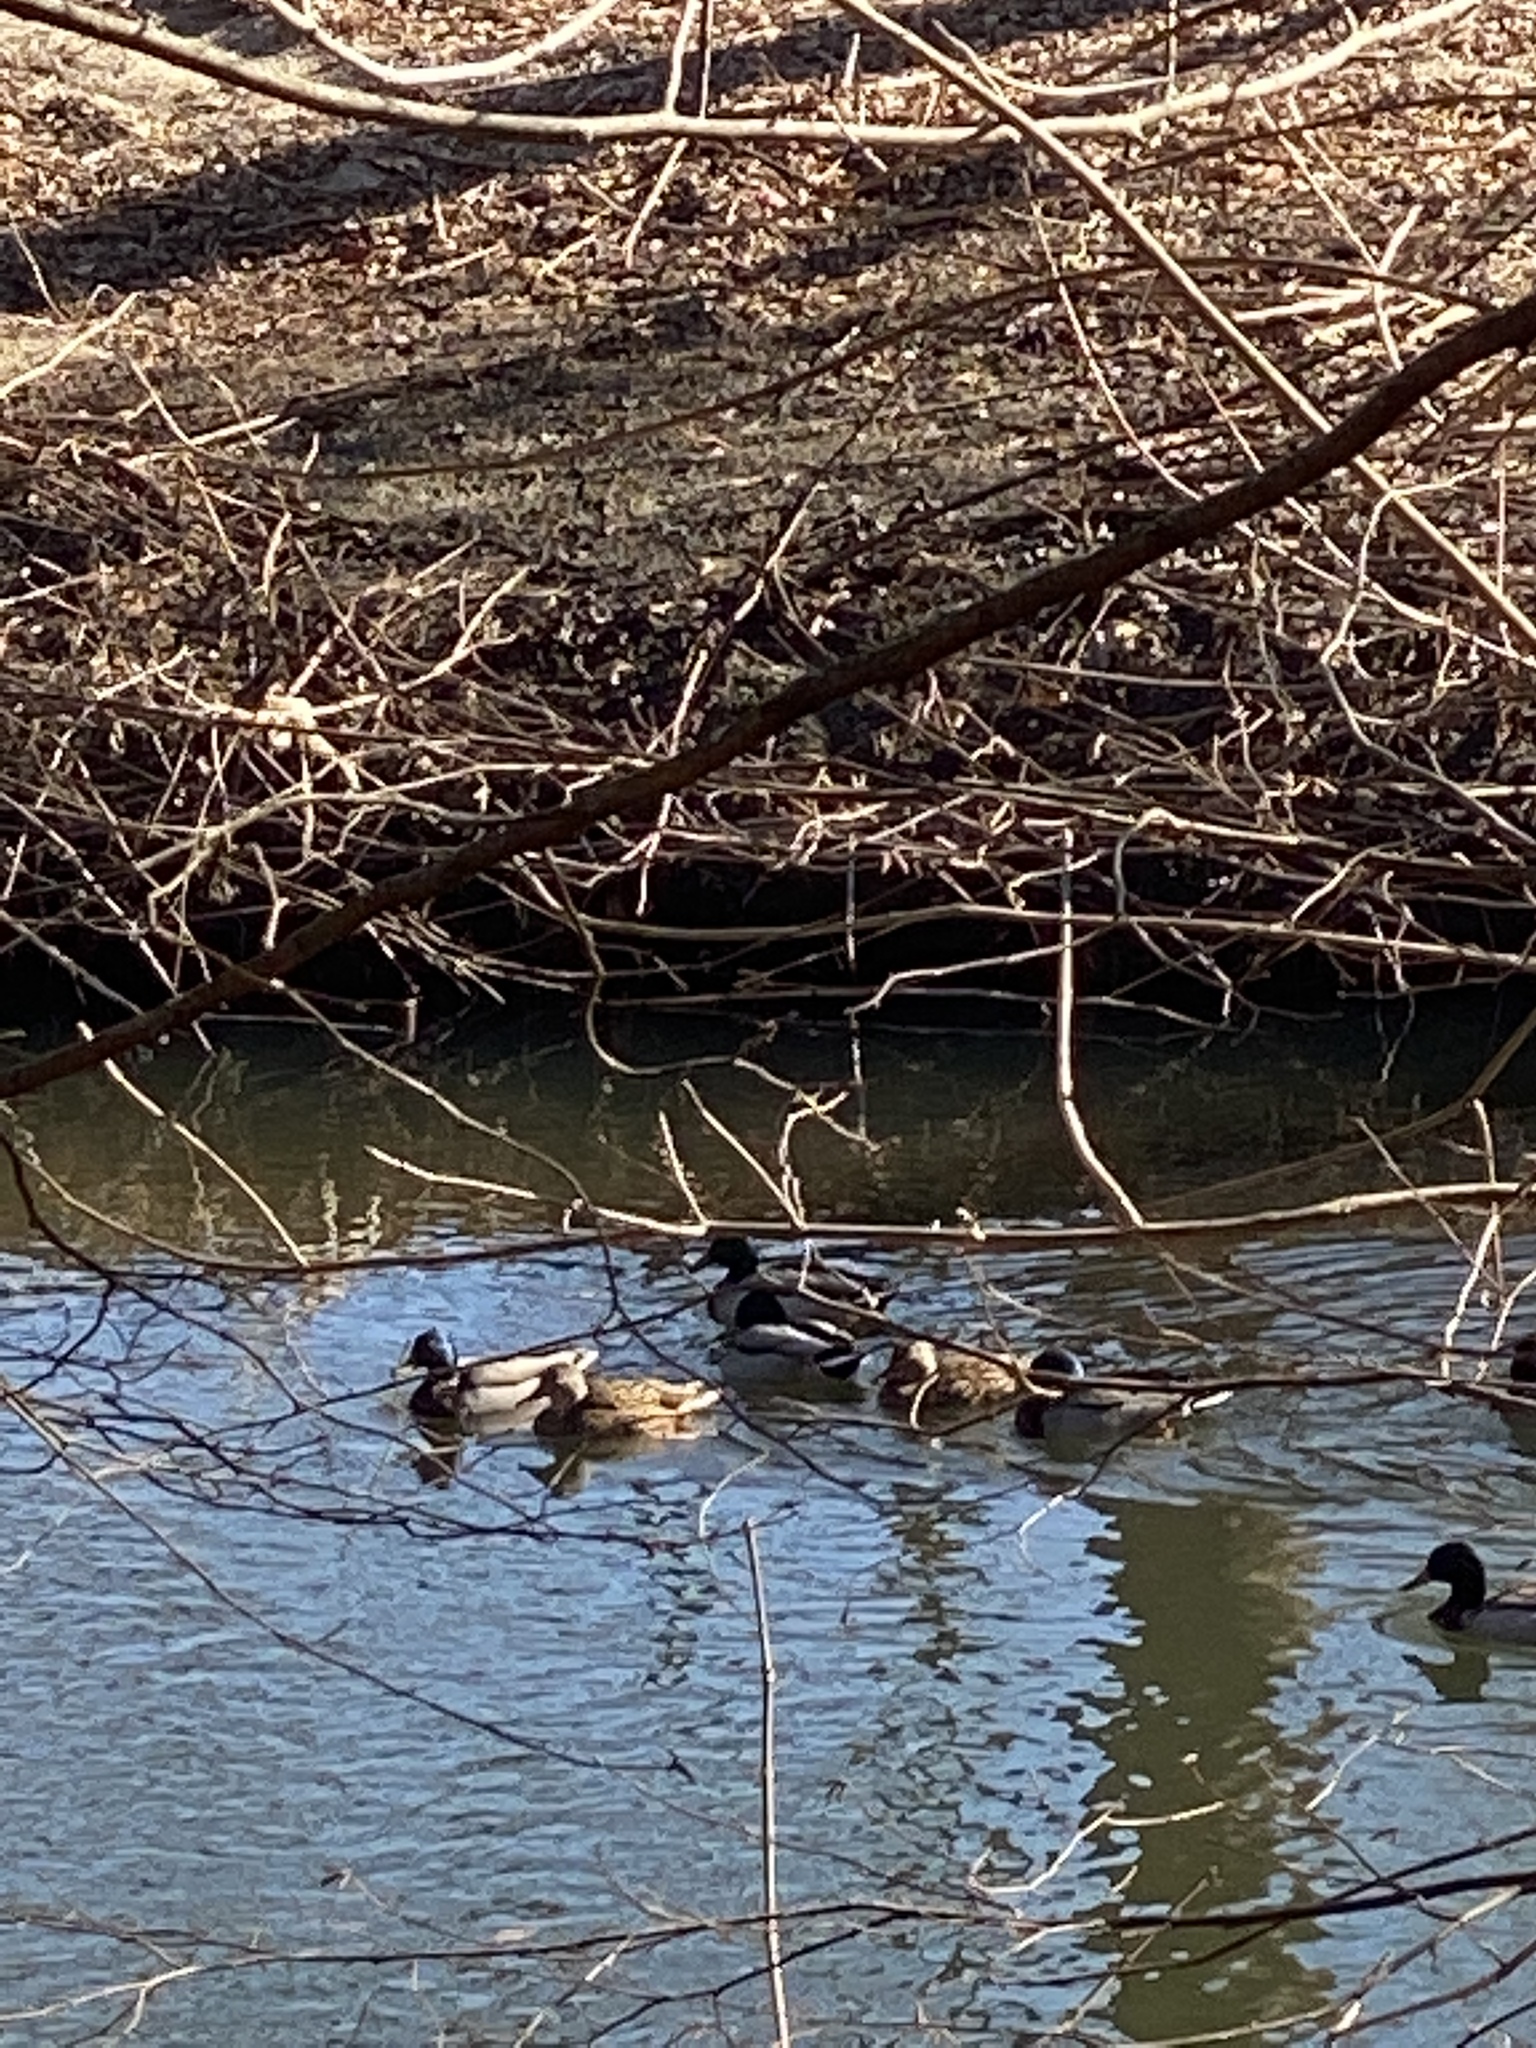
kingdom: Animalia
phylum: Chordata
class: Aves
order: Anseriformes
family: Anatidae
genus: Anas
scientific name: Anas platyrhynchos
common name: Mallard
